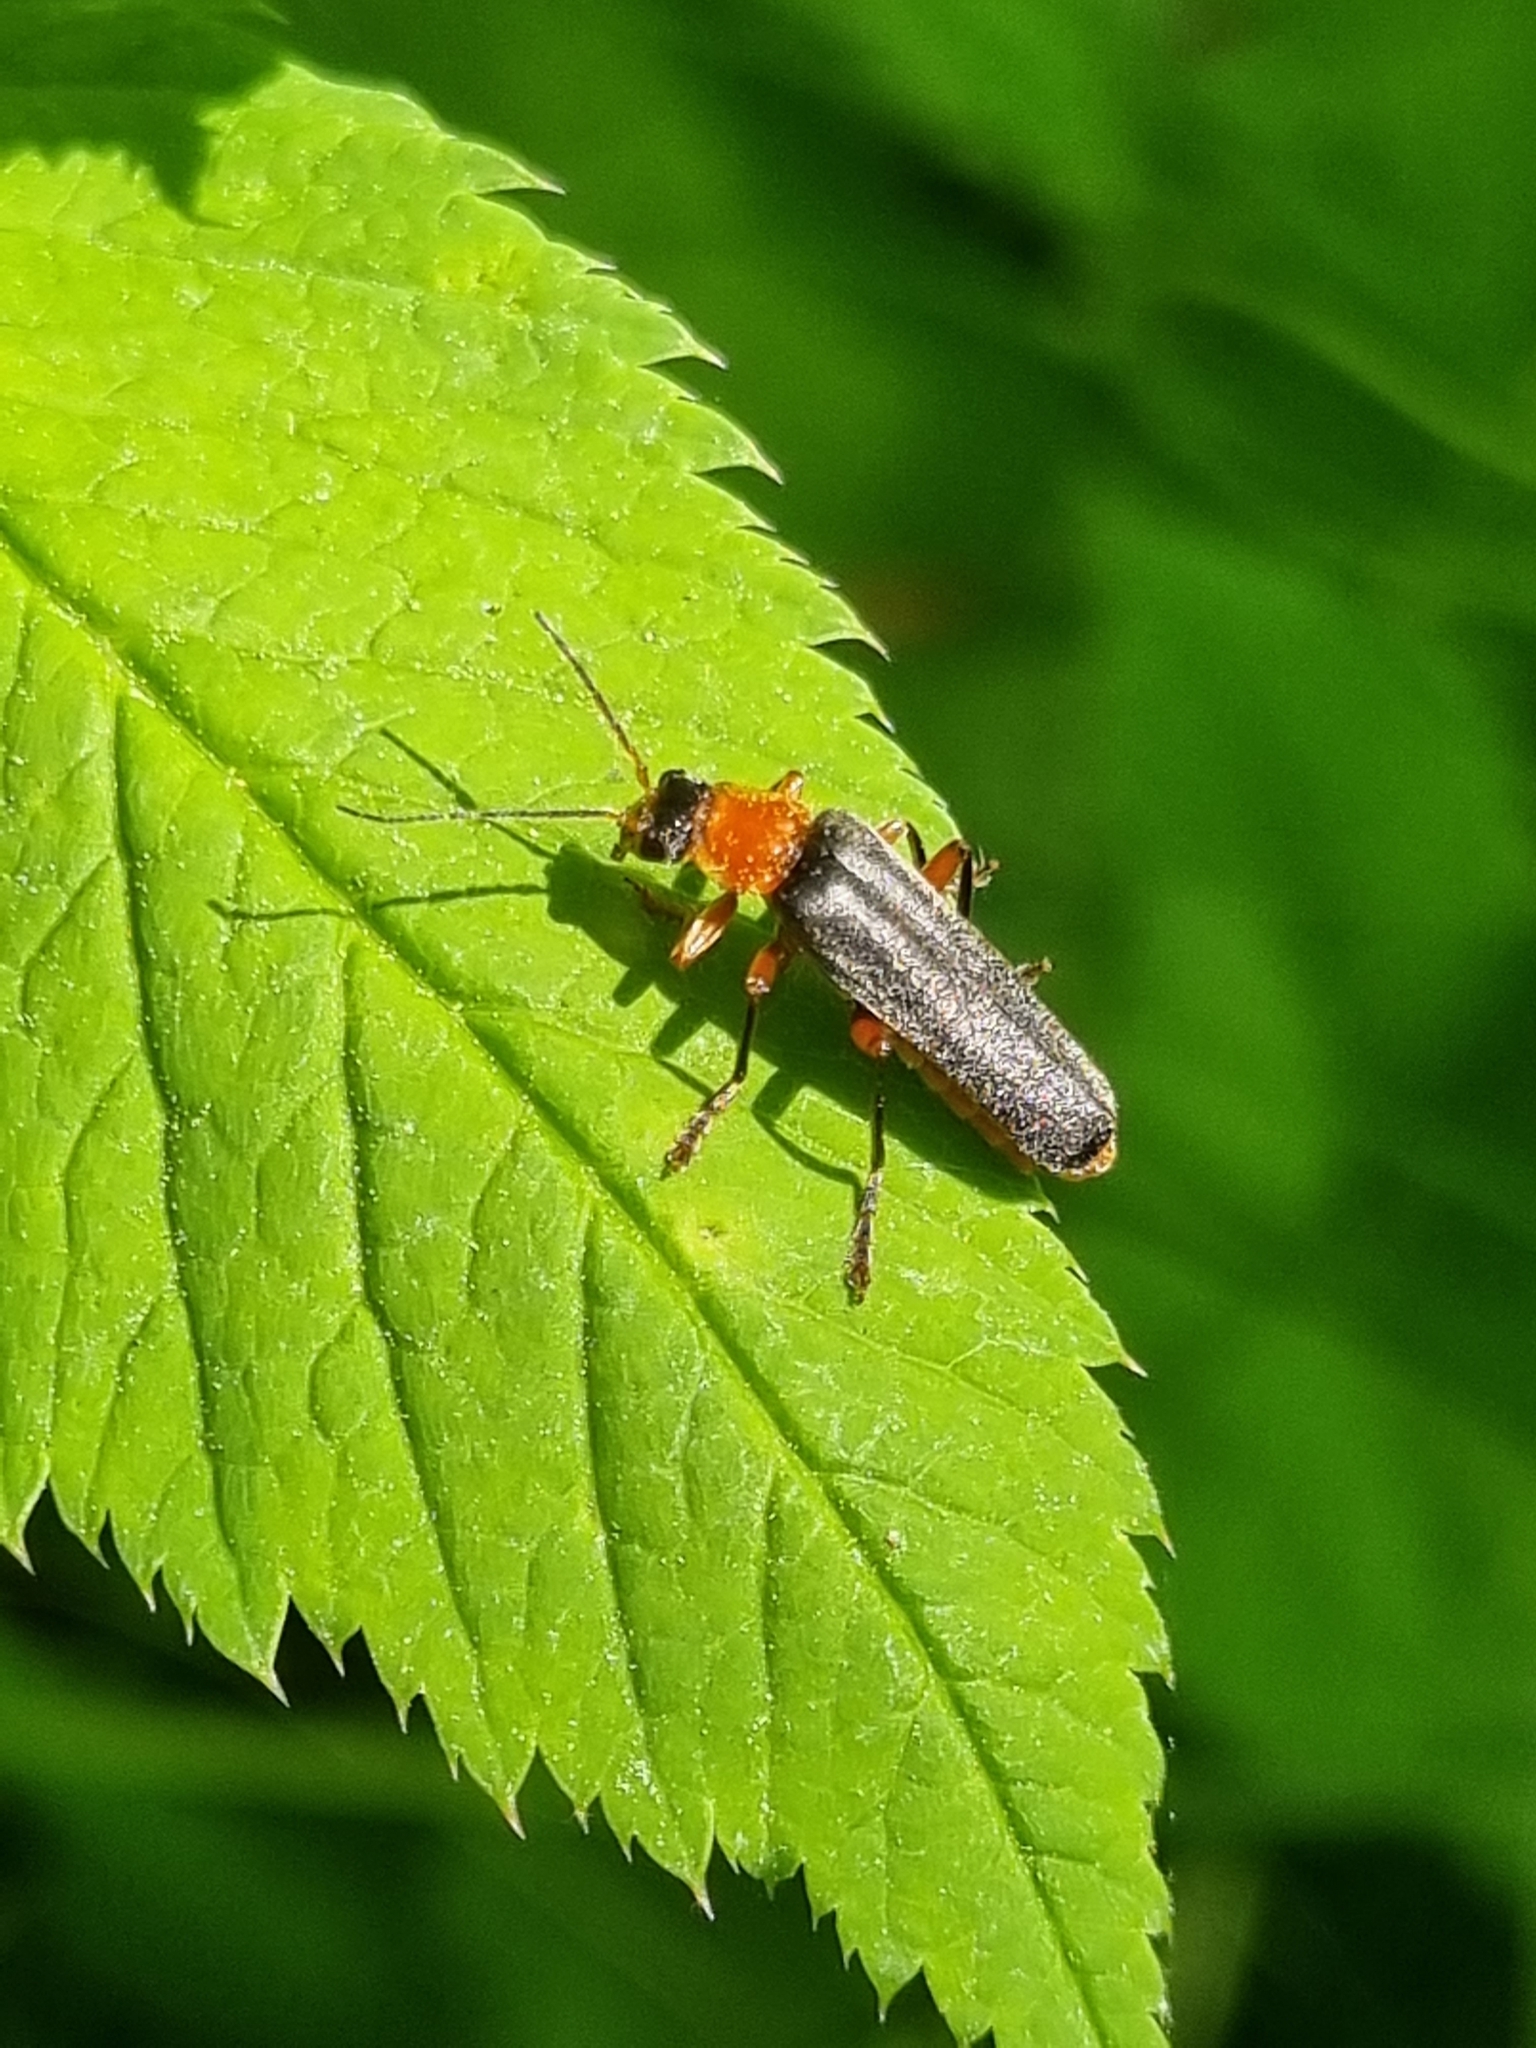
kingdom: Animalia
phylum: Arthropoda
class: Insecta
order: Coleoptera
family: Cantharidae
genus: Cantharis
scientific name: Cantharis pellucida
